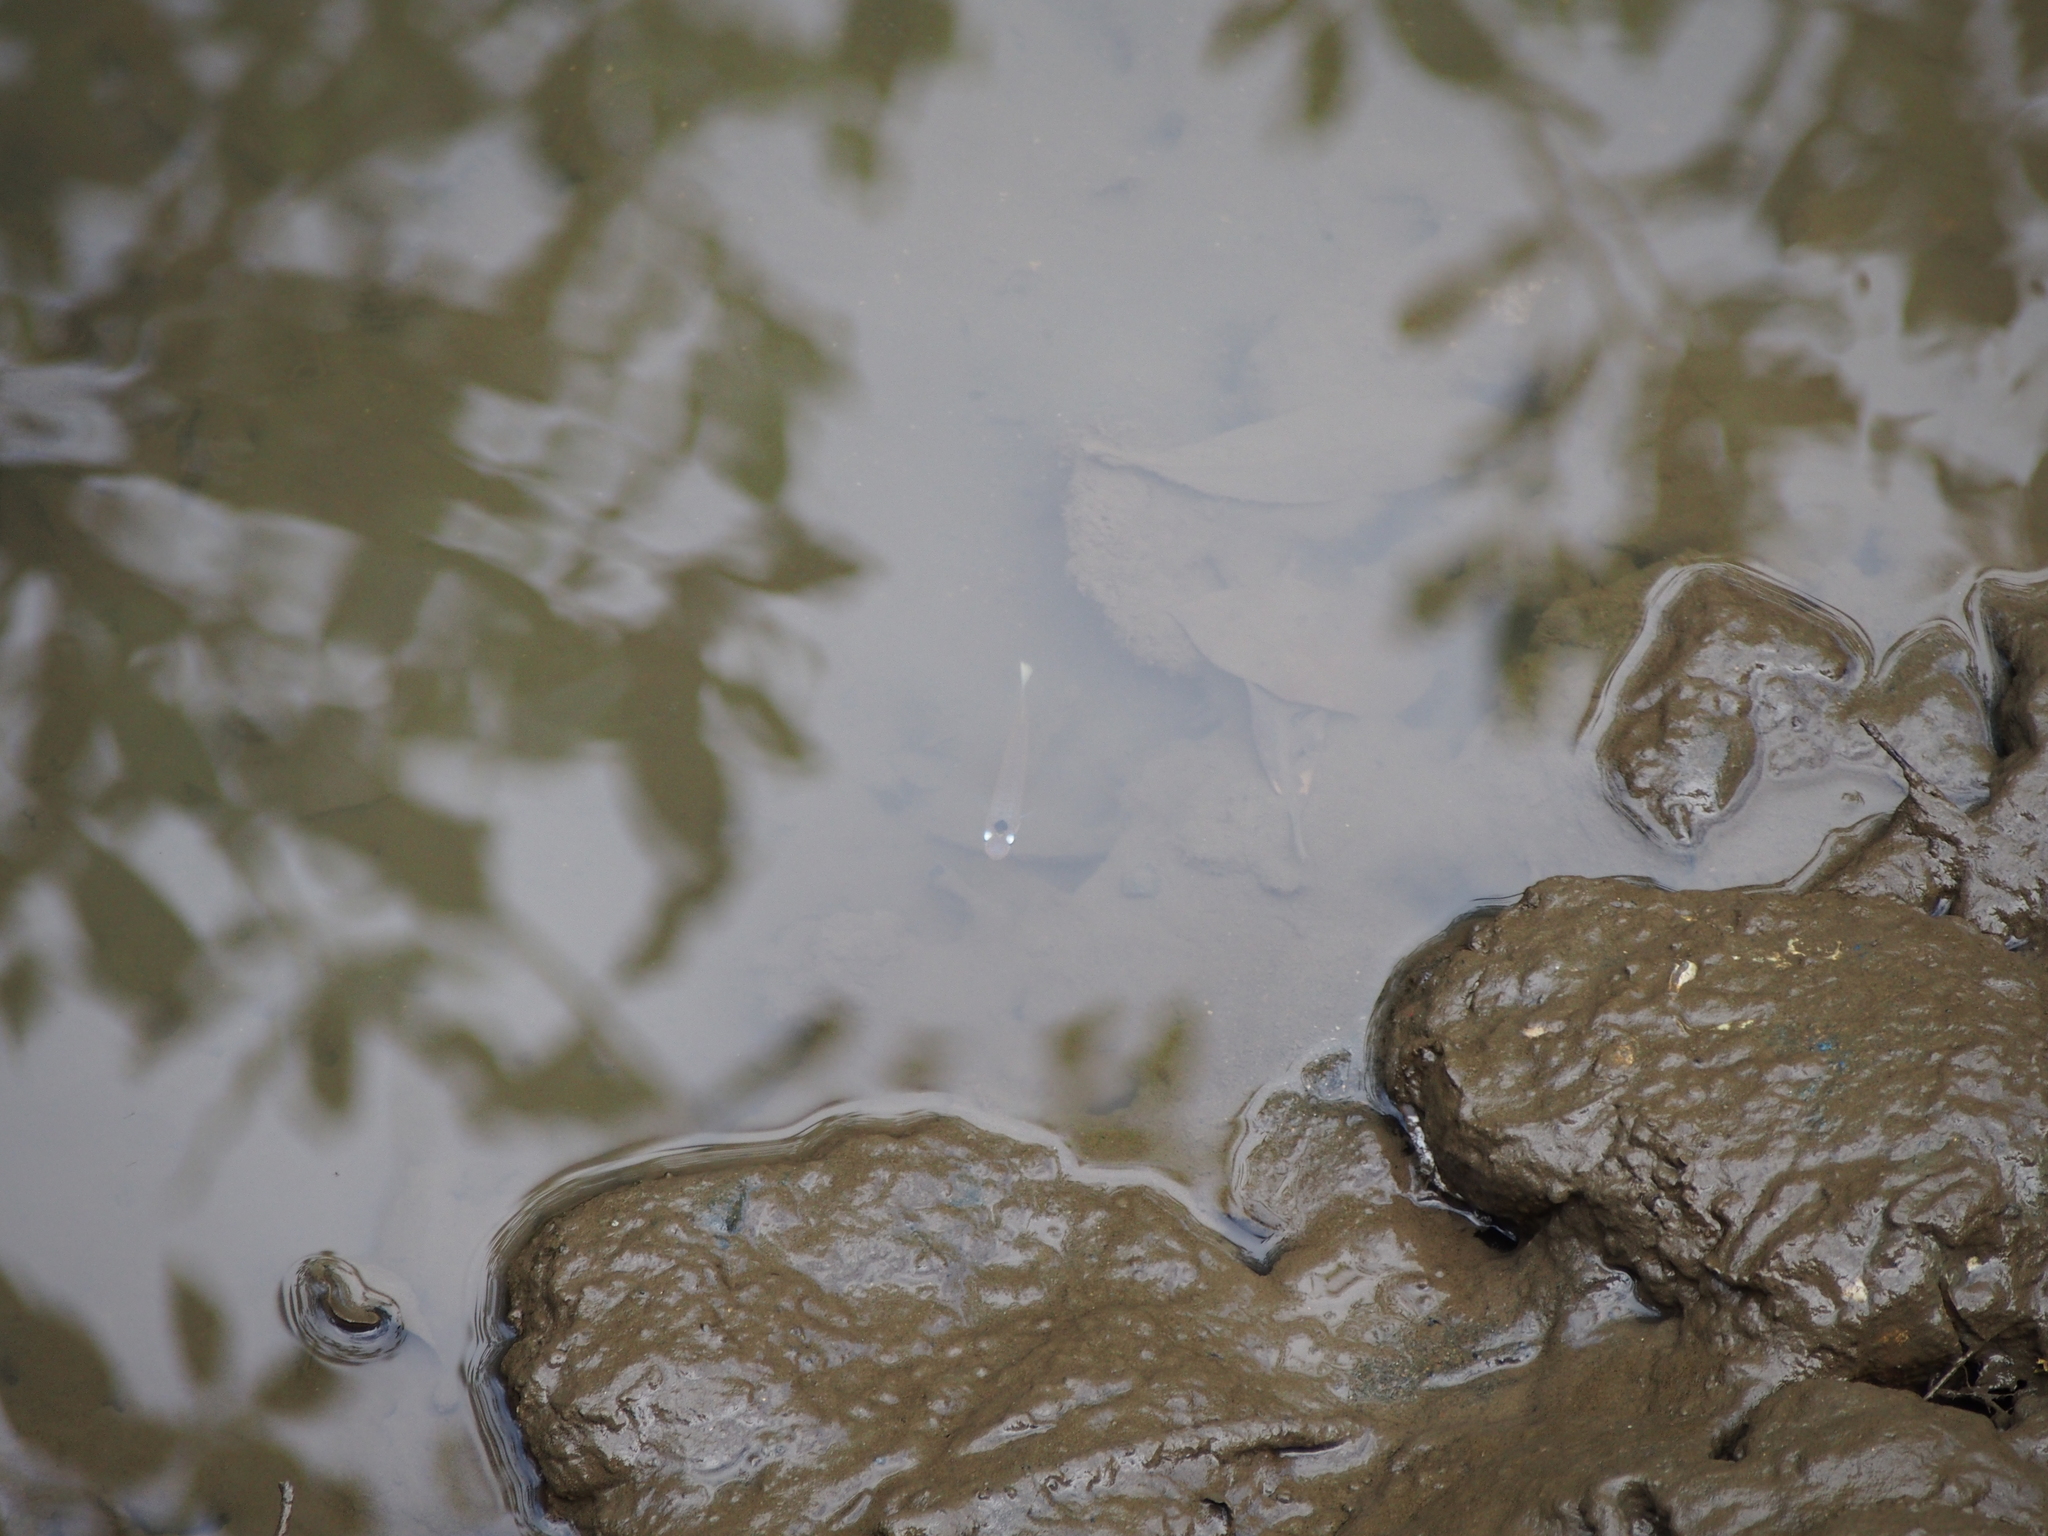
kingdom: Animalia
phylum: Chordata
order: Cyprinodontiformes
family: Anablepidae
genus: Oxyzygonectes
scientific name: Oxyzygonectes dovii
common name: White-eye
